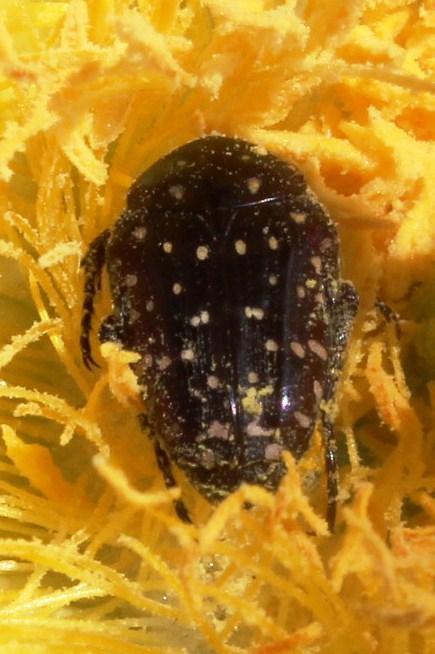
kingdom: Animalia
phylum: Arthropoda
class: Insecta
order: Coleoptera
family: Scarabaeidae
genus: Oxythyrea
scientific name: Oxythyrea
